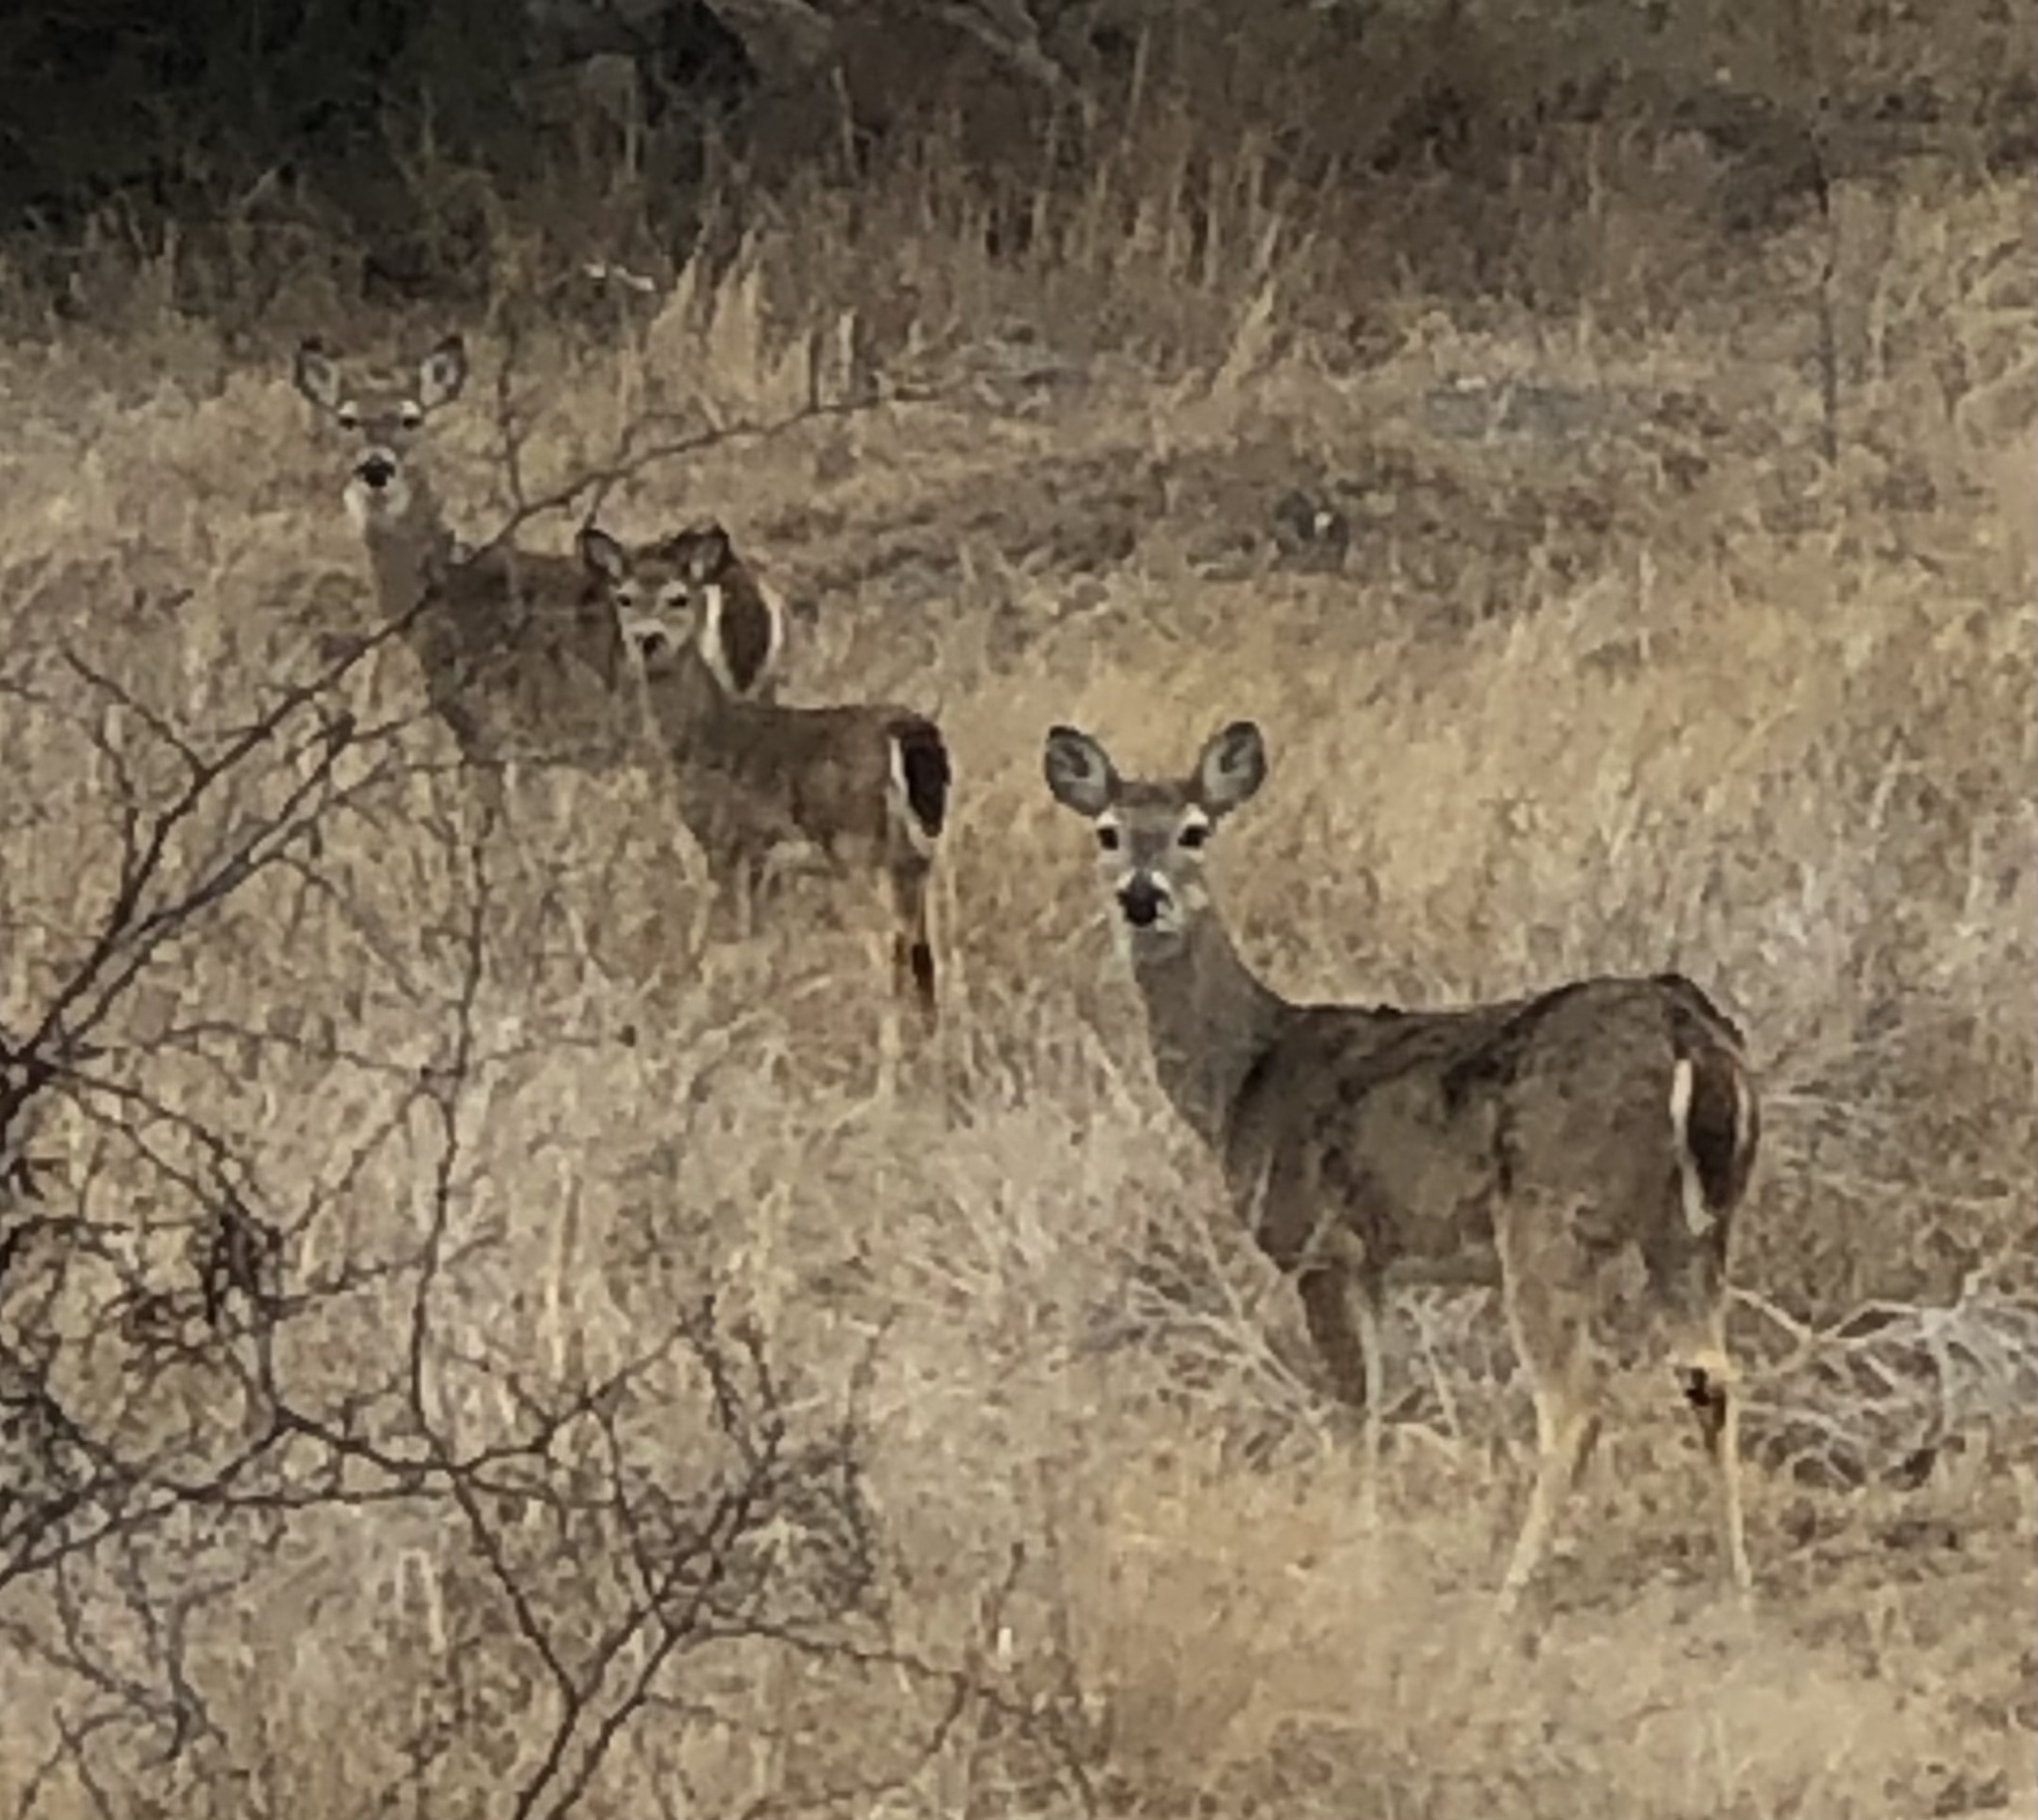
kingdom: Animalia
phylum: Chordata
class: Mammalia
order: Artiodactyla
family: Cervidae
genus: Odocoileus
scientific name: Odocoileus virginianus
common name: White-tailed deer
